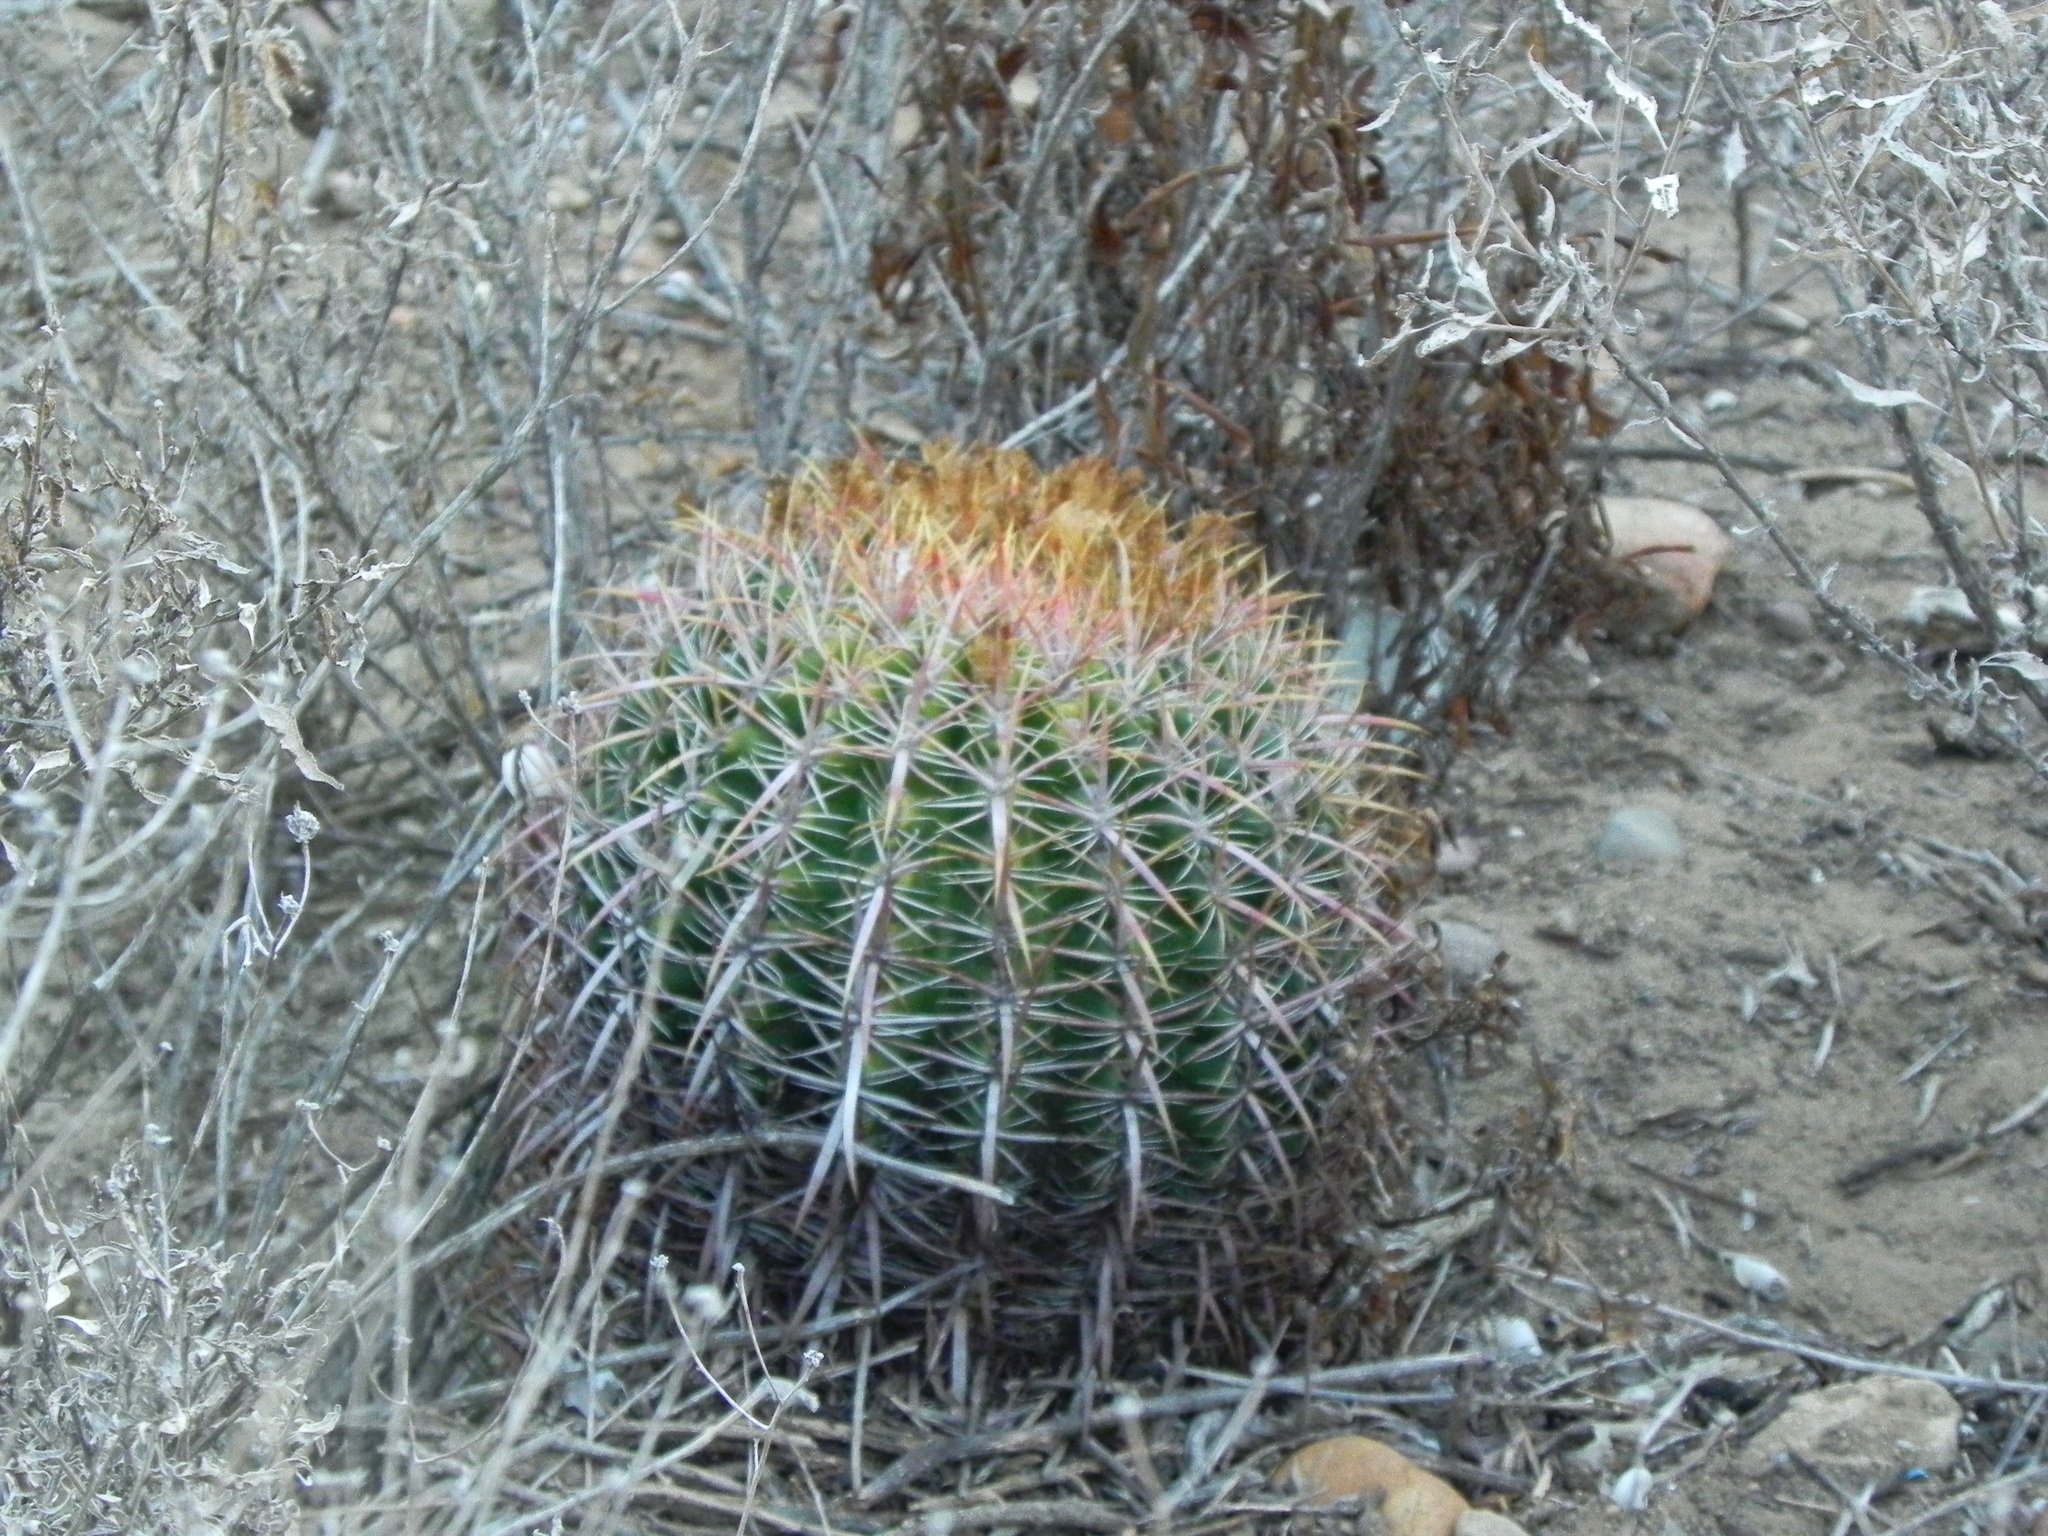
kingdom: Plantae
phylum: Tracheophyta
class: Magnoliopsida
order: Caryophyllales
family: Cactaceae
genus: Ferocactus
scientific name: Ferocactus viridescens
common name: San diego barrel cactus
